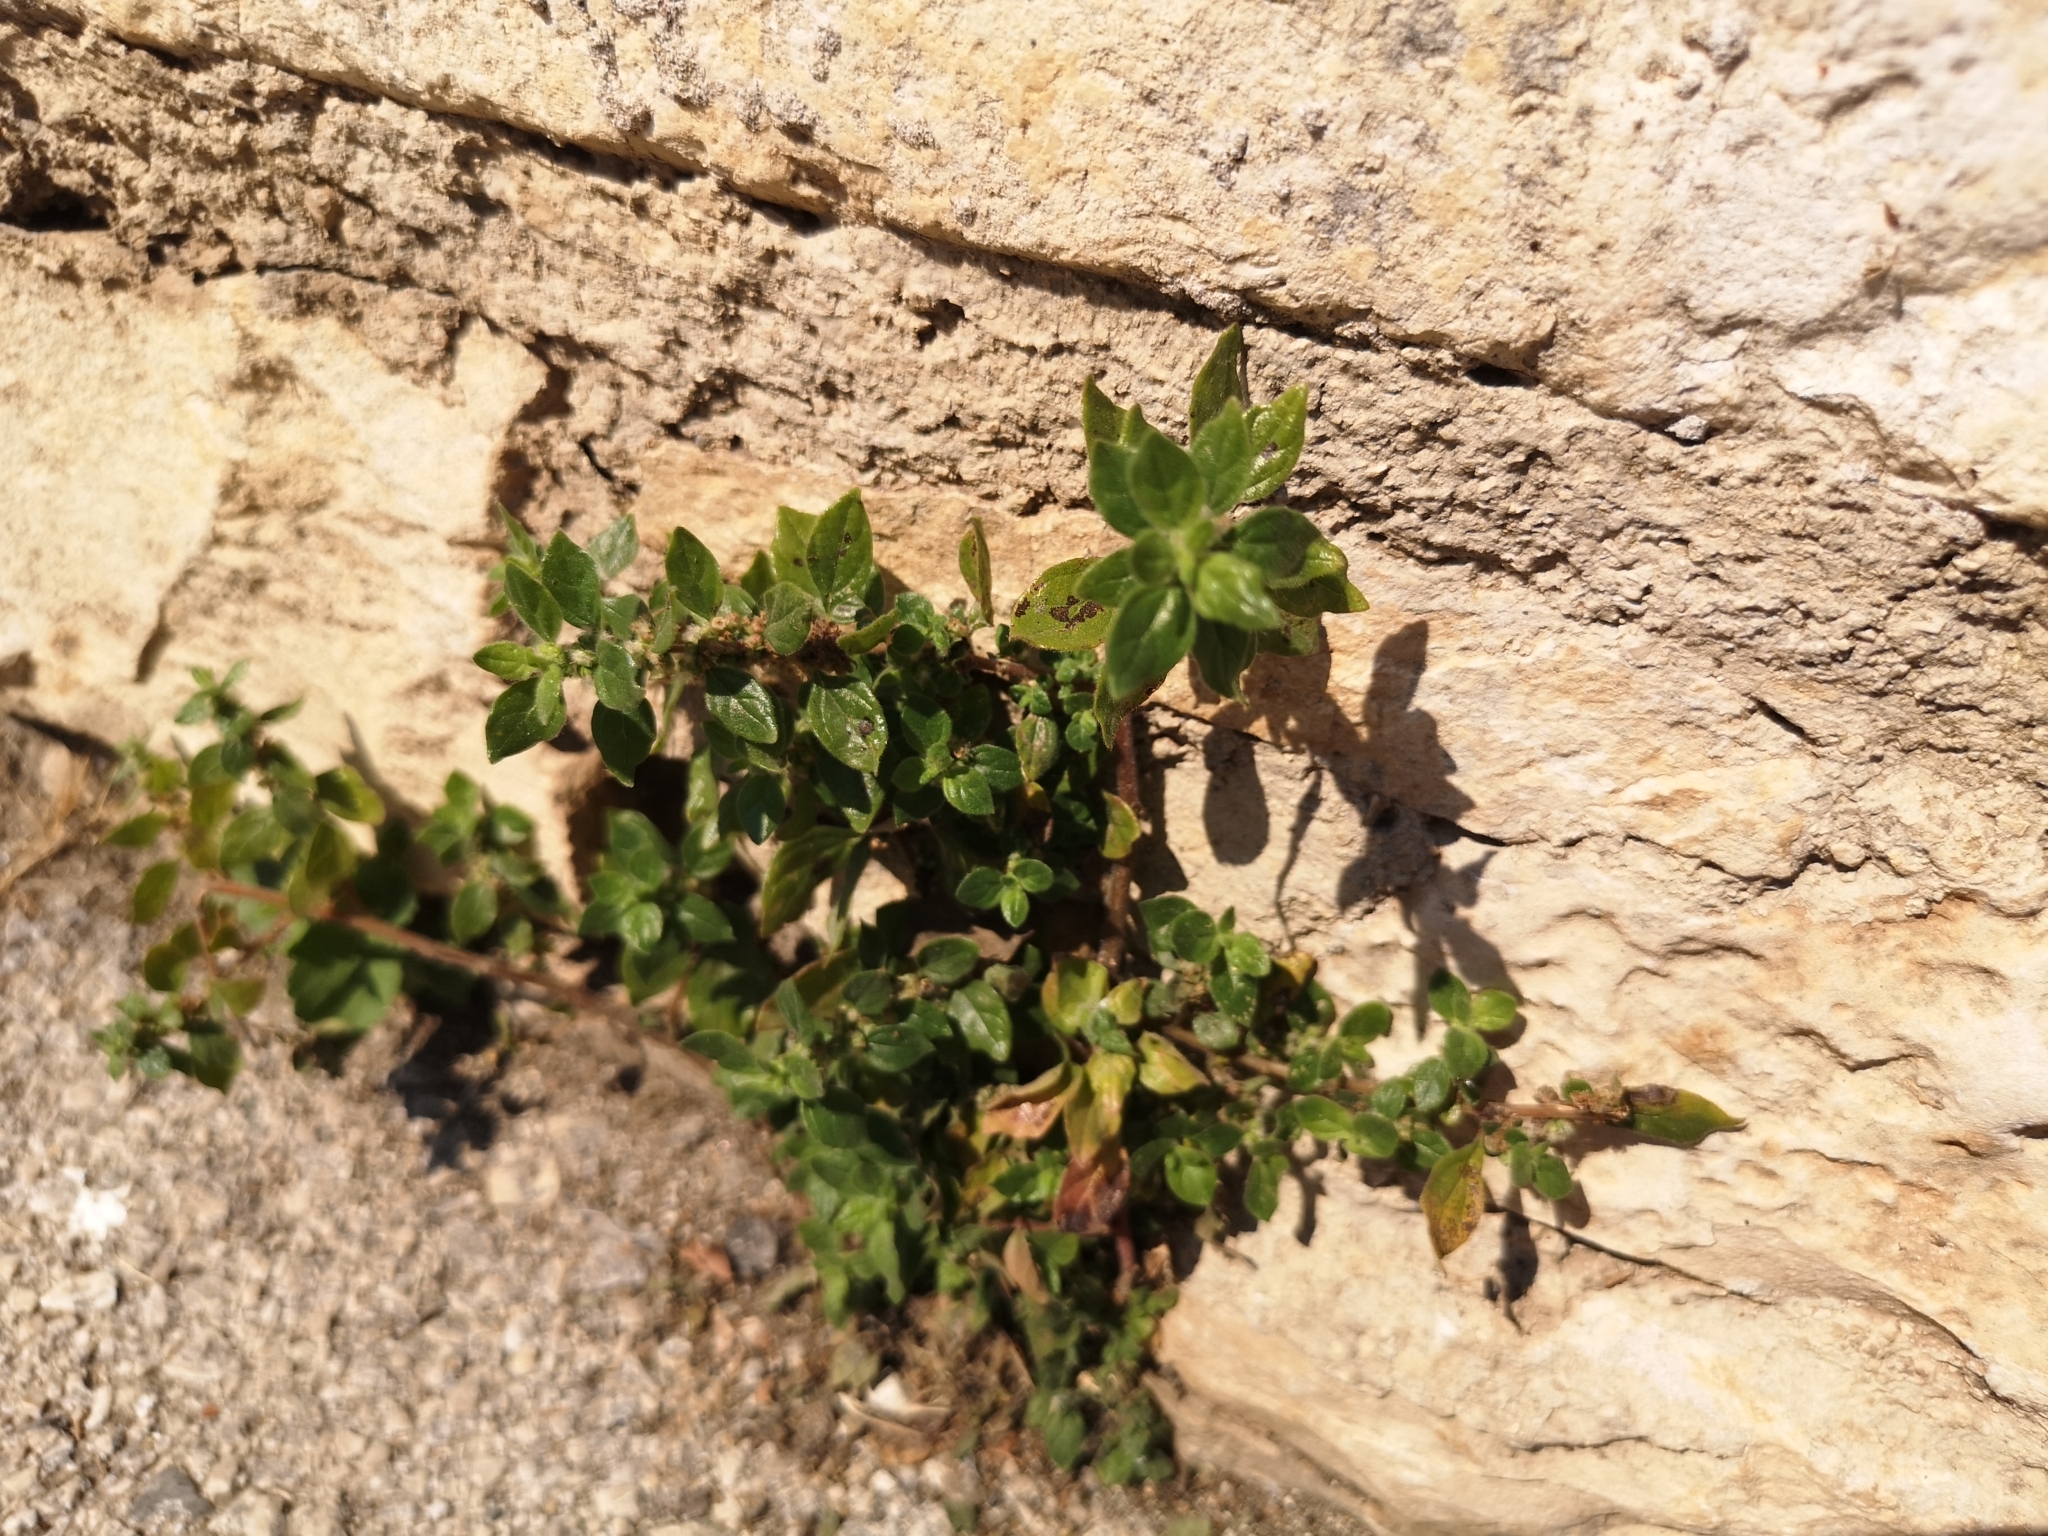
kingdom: Plantae
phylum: Tracheophyta
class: Magnoliopsida
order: Rosales
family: Urticaceae
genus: Parietaria
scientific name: Parietaria judaica
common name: Pellitory-of-the-wall
